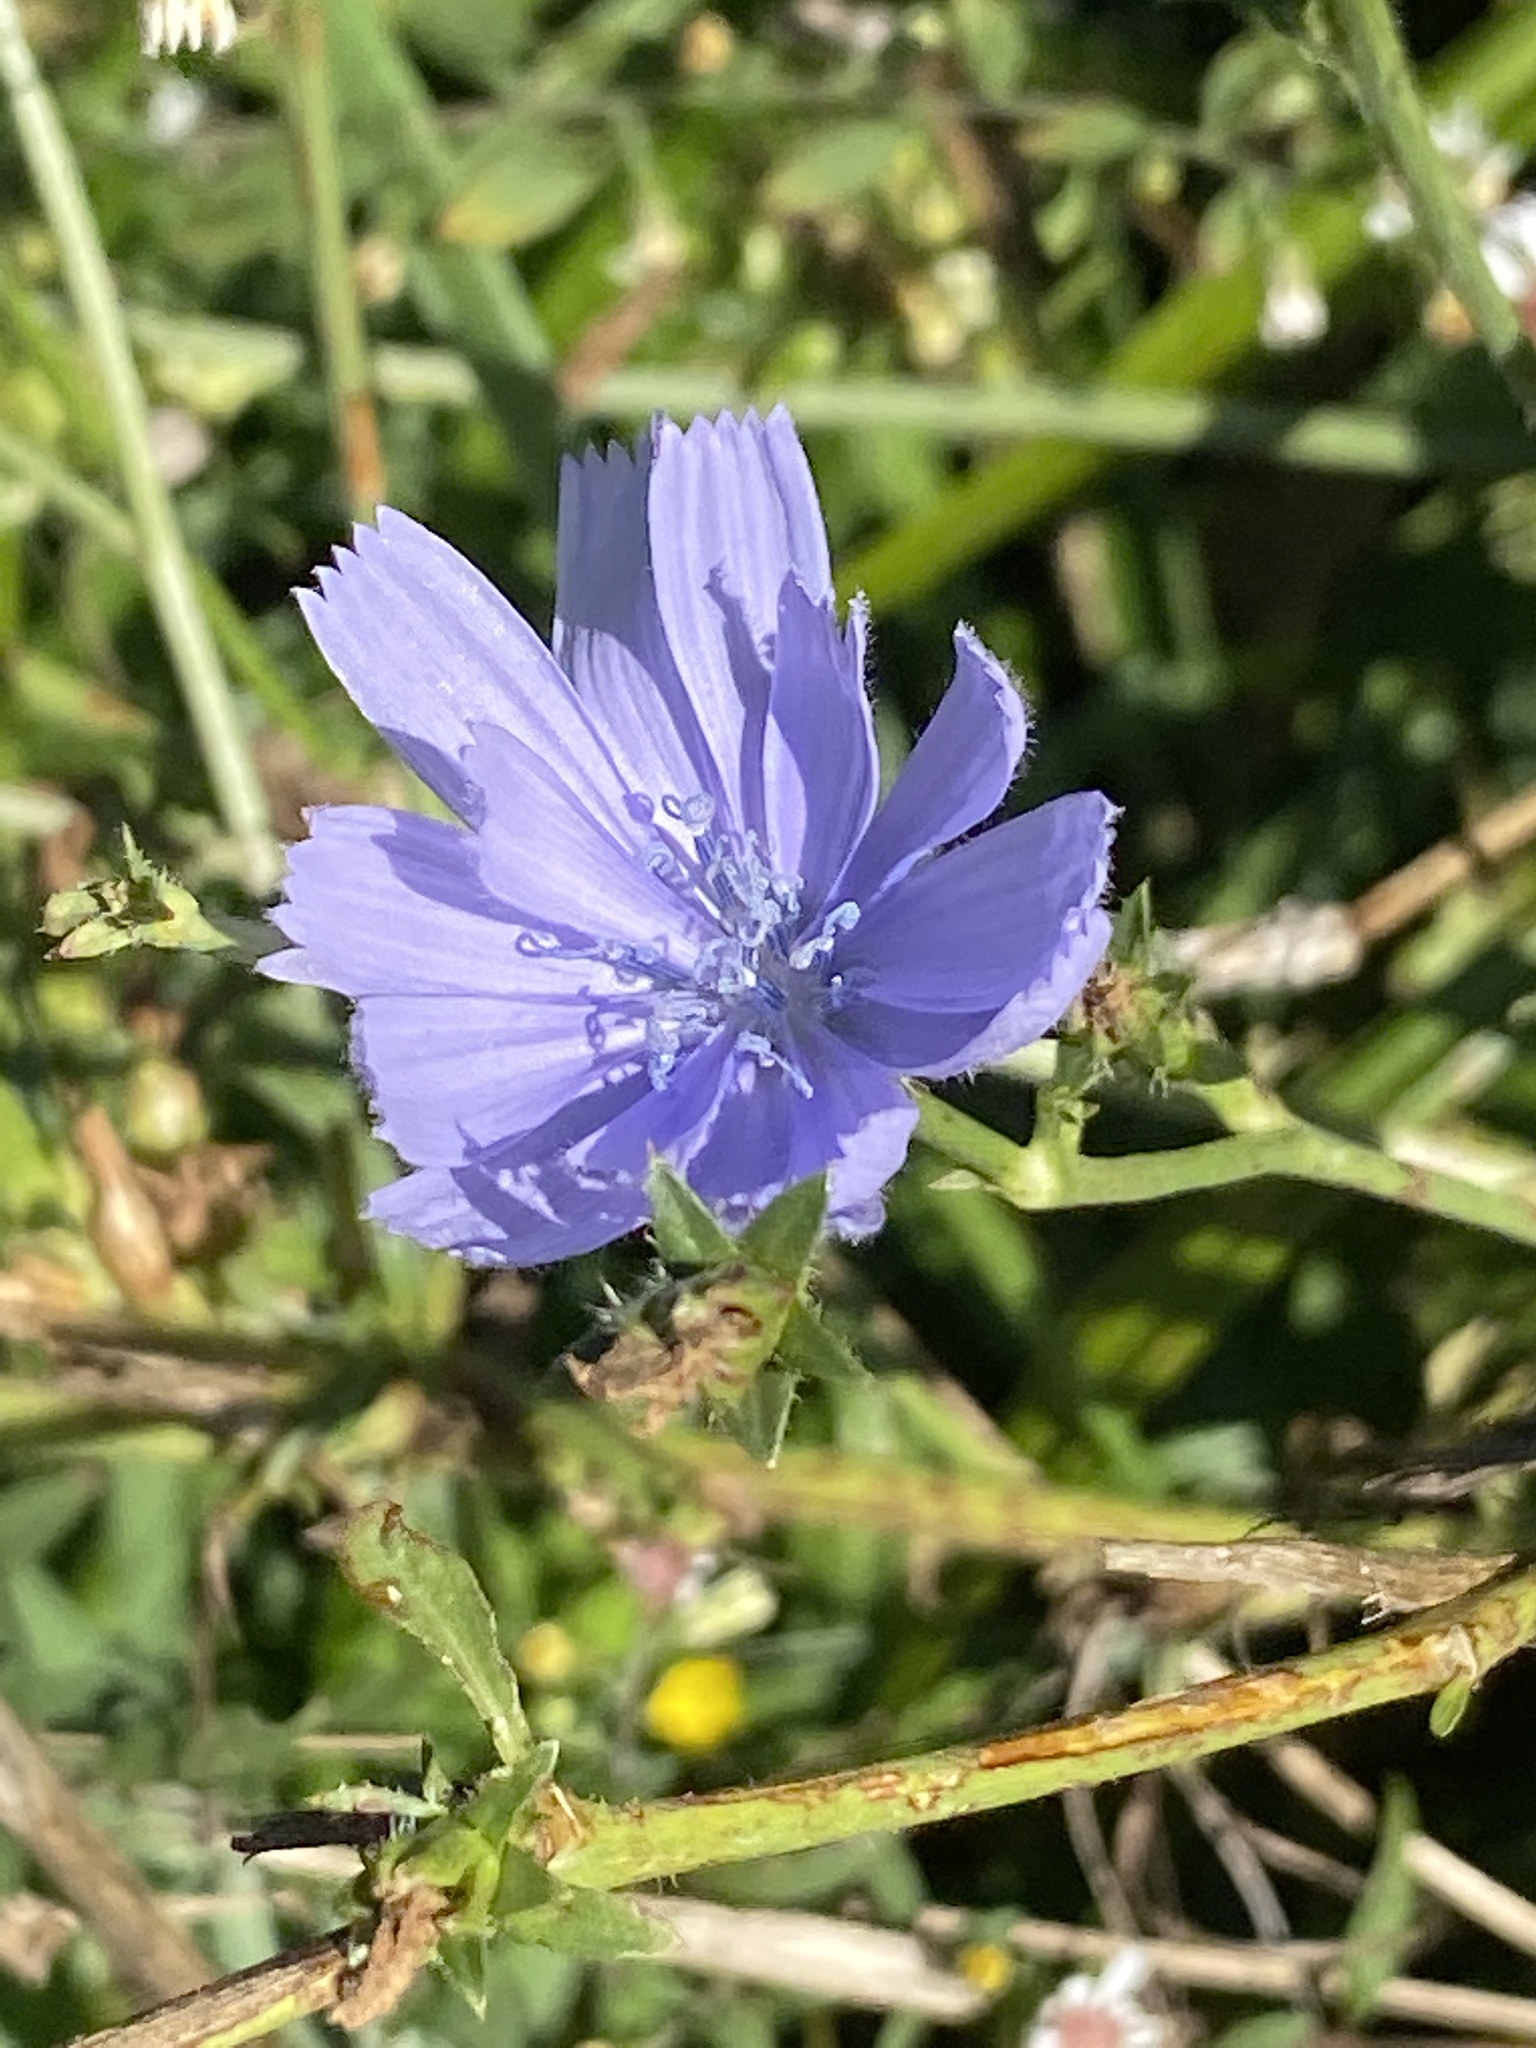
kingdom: Plantae
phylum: Tracheophyta
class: Magnoliopsida
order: Asterales
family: Asteraceae
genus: Cichorium
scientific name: Cichorium intybus
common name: Chicory
